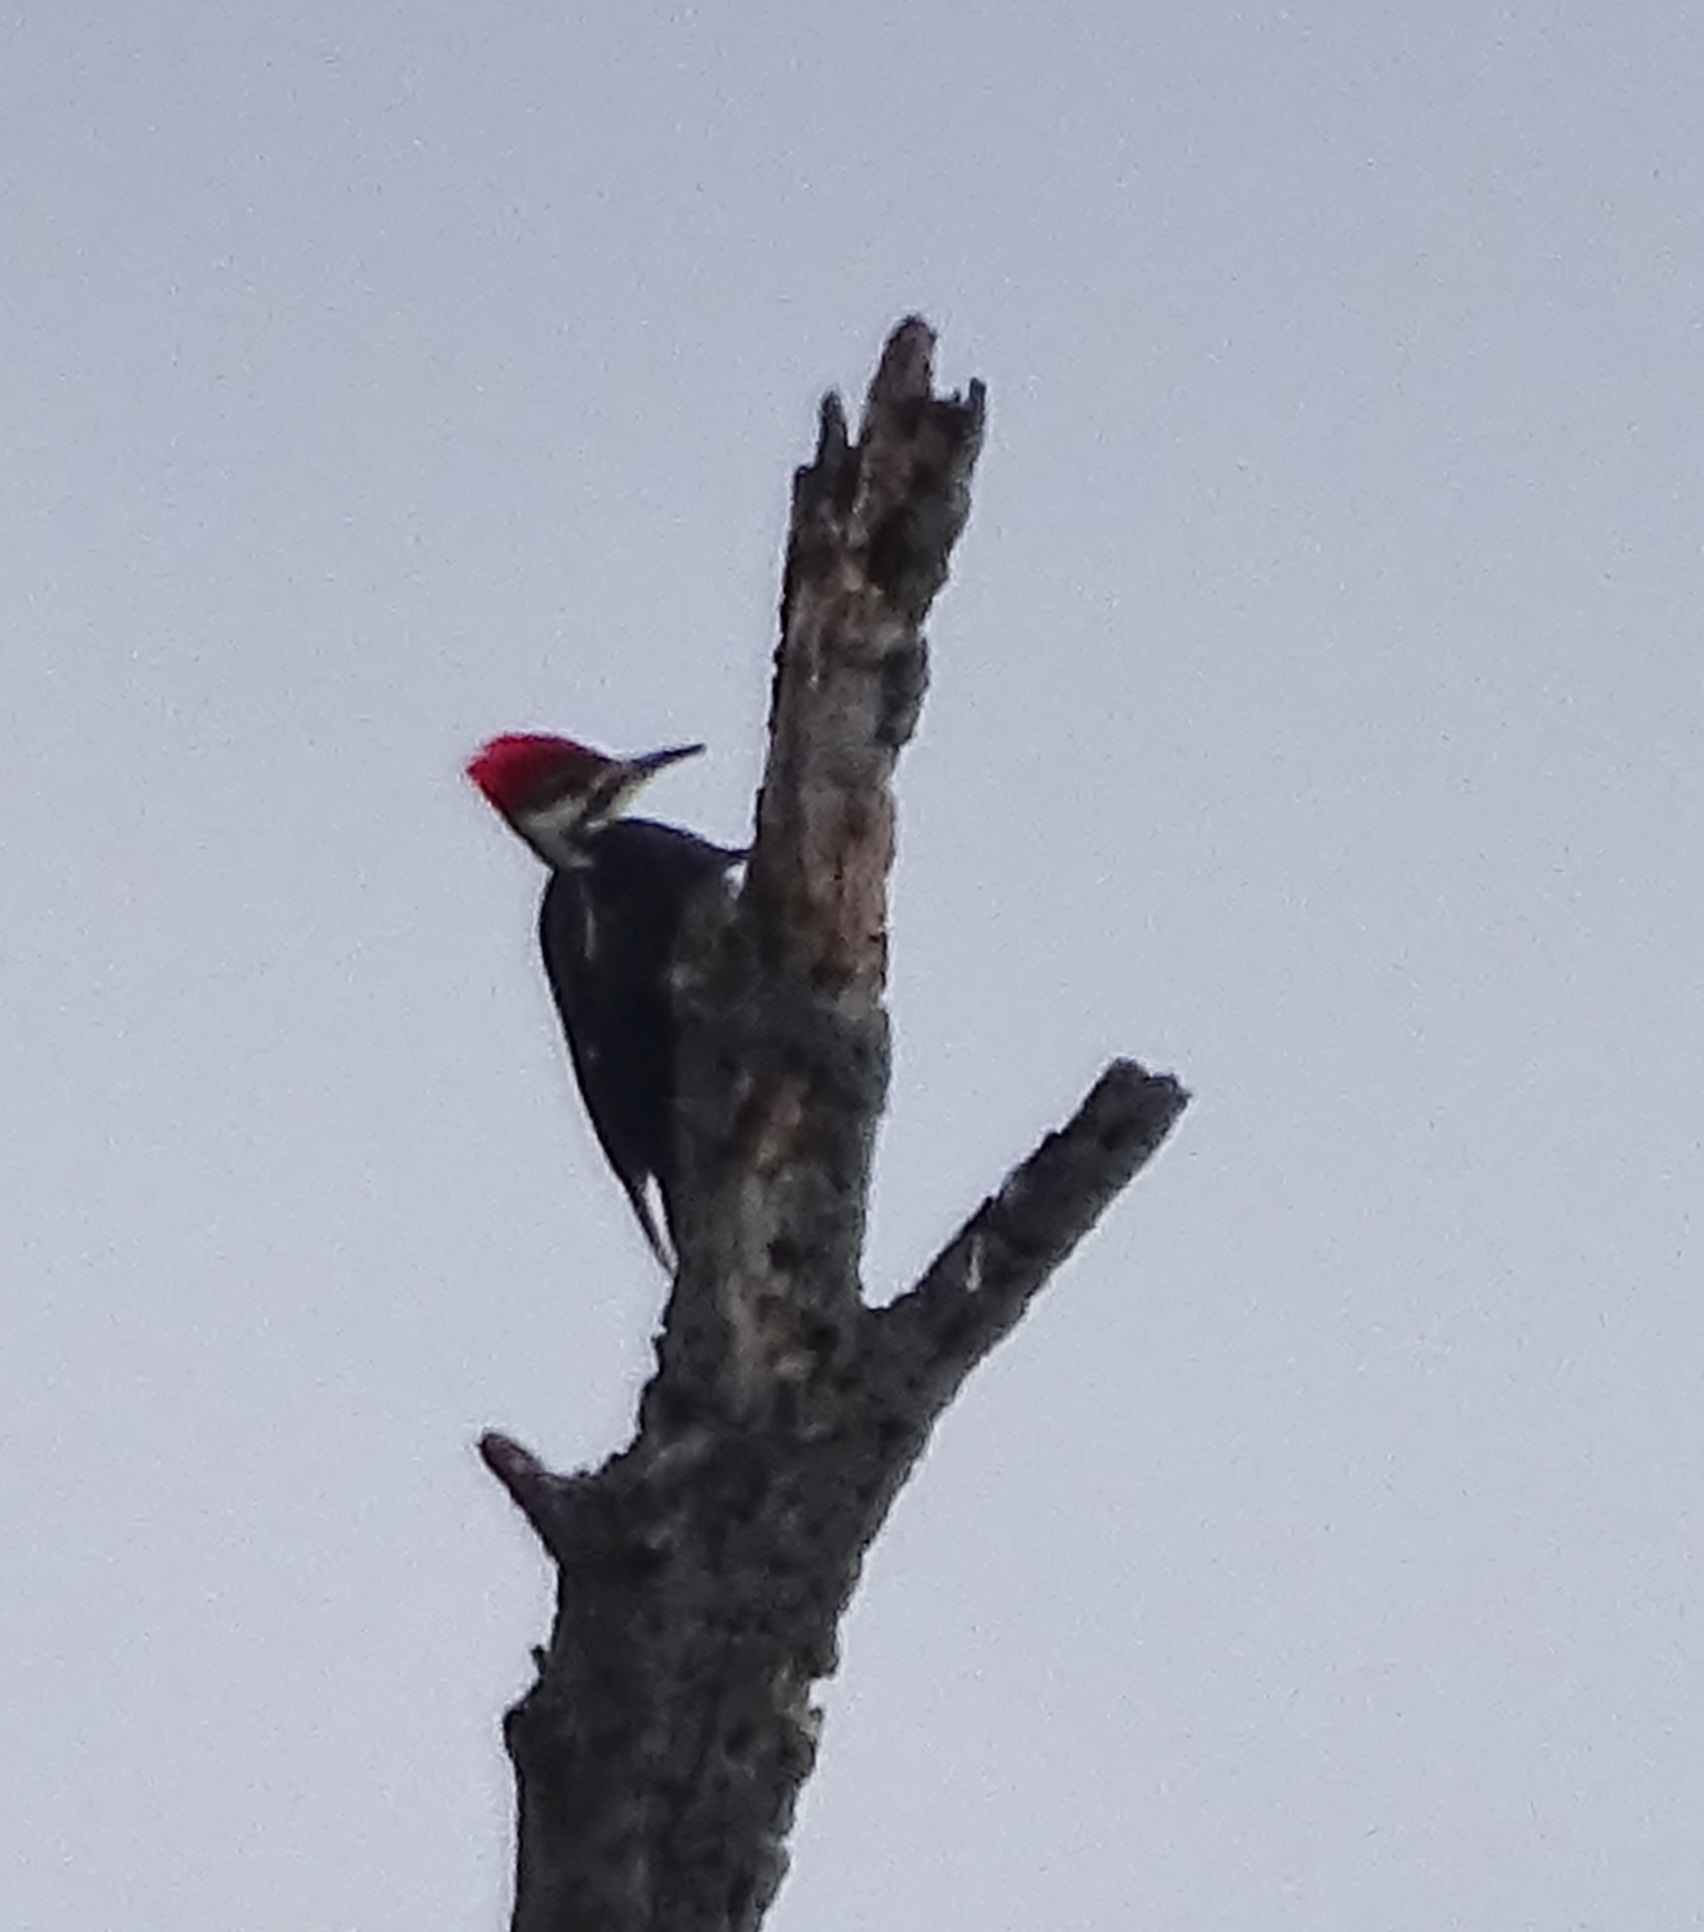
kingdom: Animalia
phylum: Chordata
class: Aves
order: Piciformes
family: Picidae
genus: Dryocopus
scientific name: Dryocopus pileatus
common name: Pileated woodpecker
